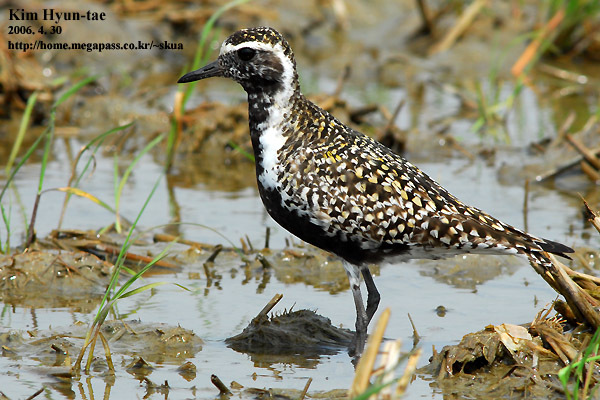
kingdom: Animalia
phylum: Chordata
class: Aves
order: Charadriiformes
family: Charadriidae
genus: Pluvialis
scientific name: Pluvialis fulva
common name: Pacific golden plover
